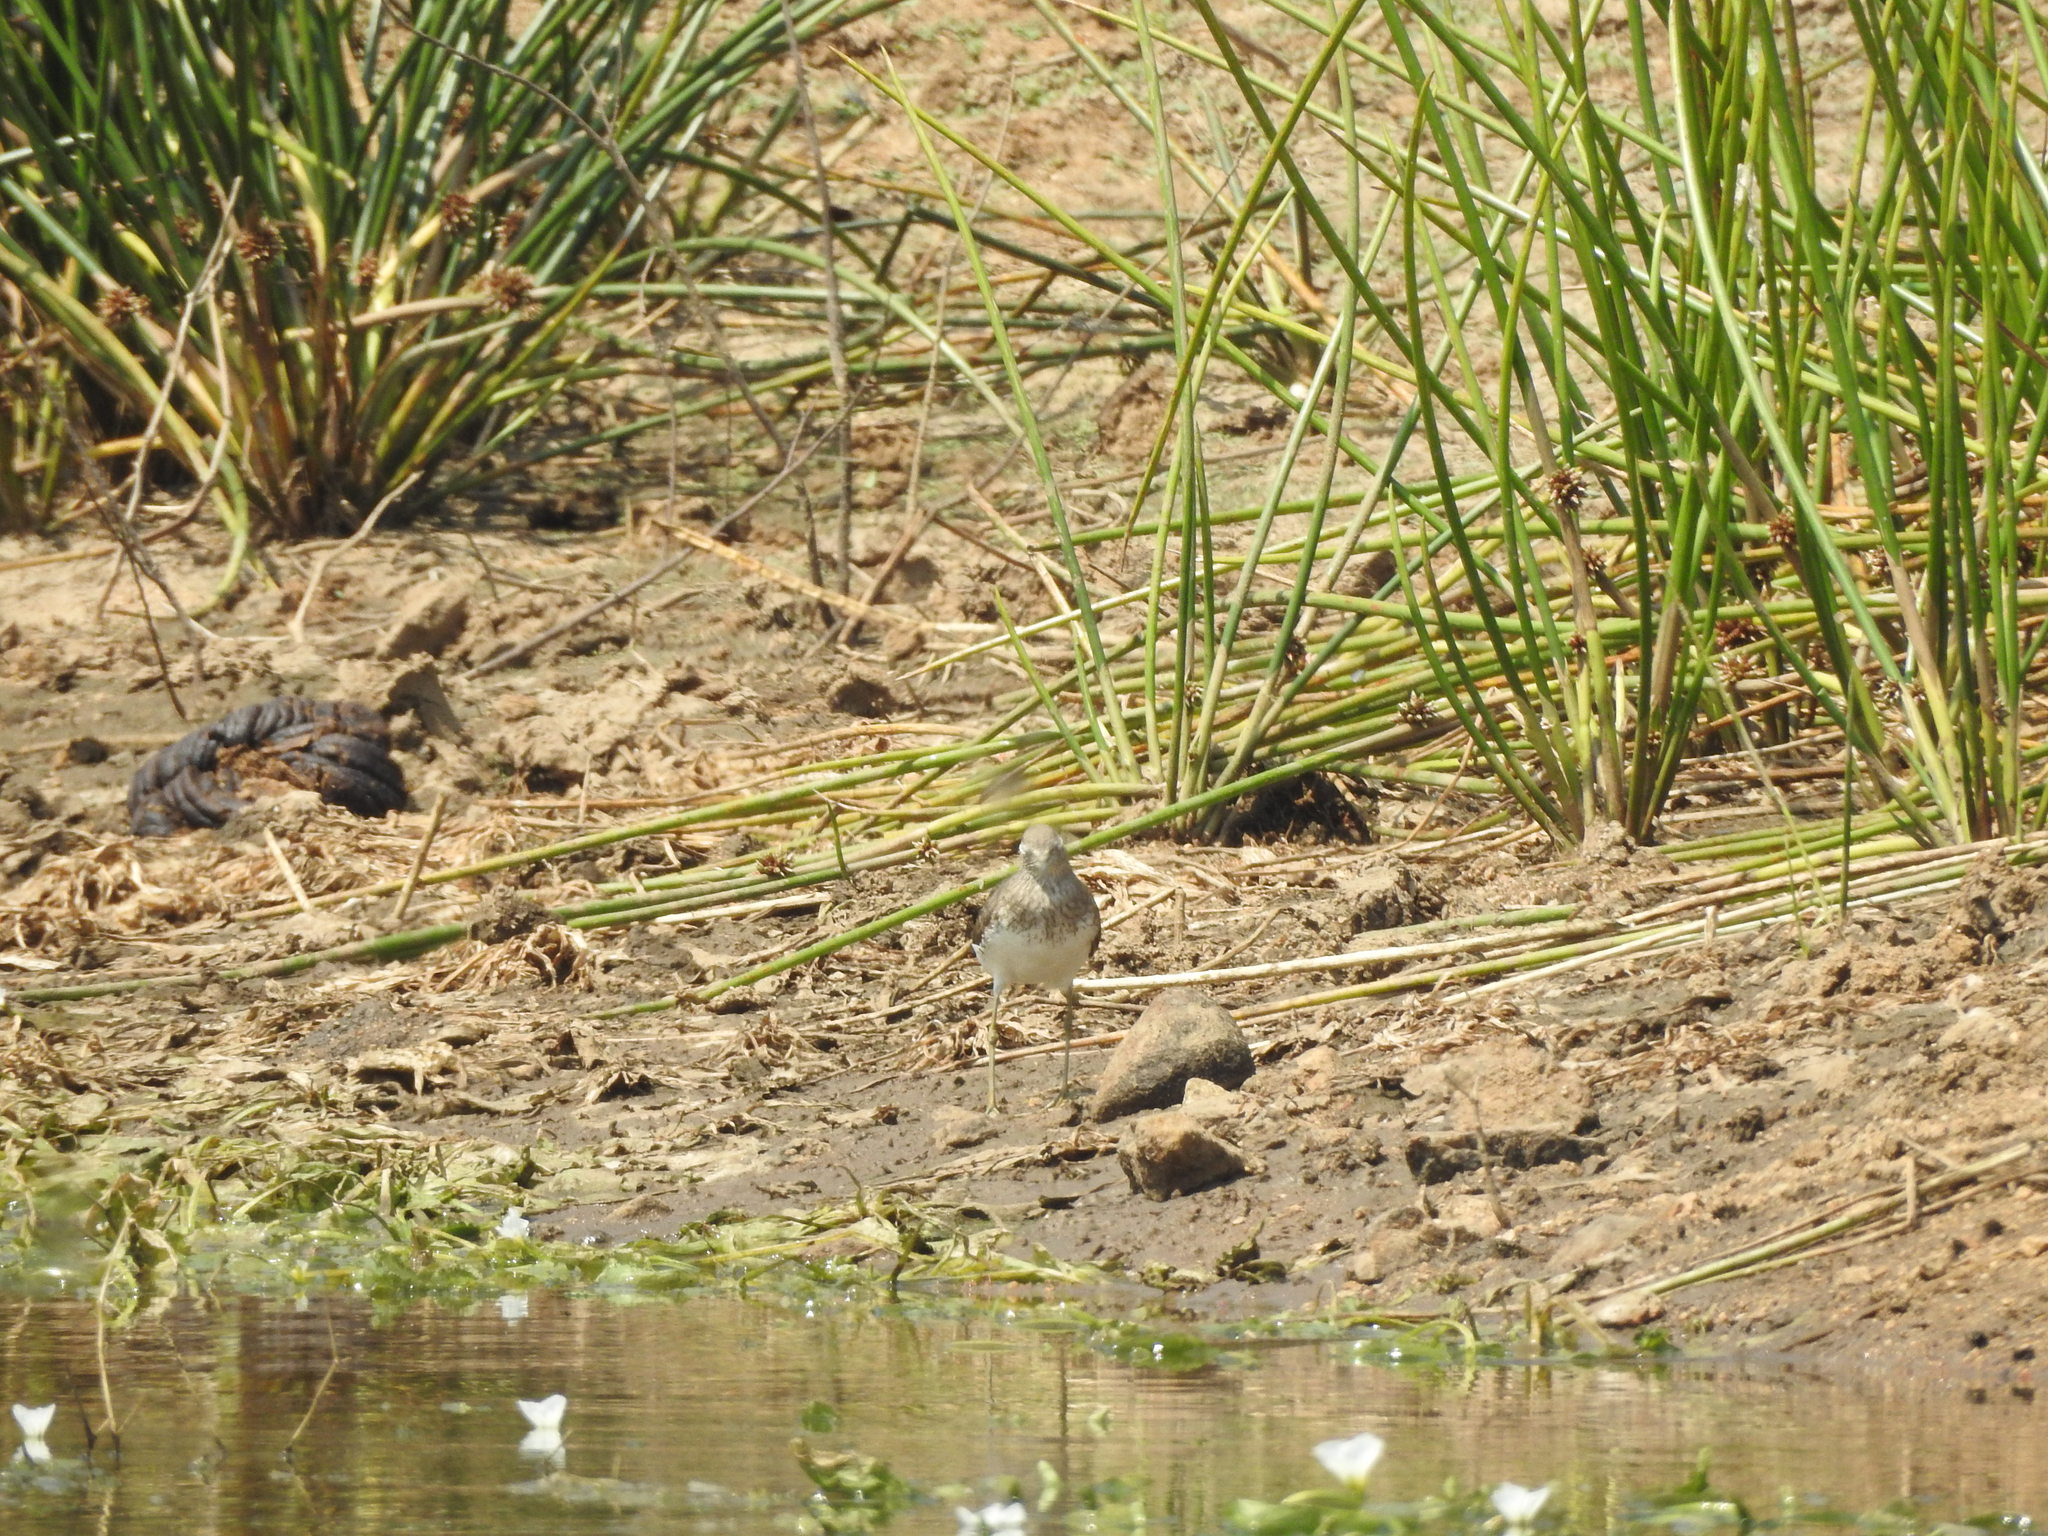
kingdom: Animalia
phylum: Chordata
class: Aves
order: Charadriiformes
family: Scolopacidae
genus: Tringa
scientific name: Tringa ochropus
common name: Green sandpiper
